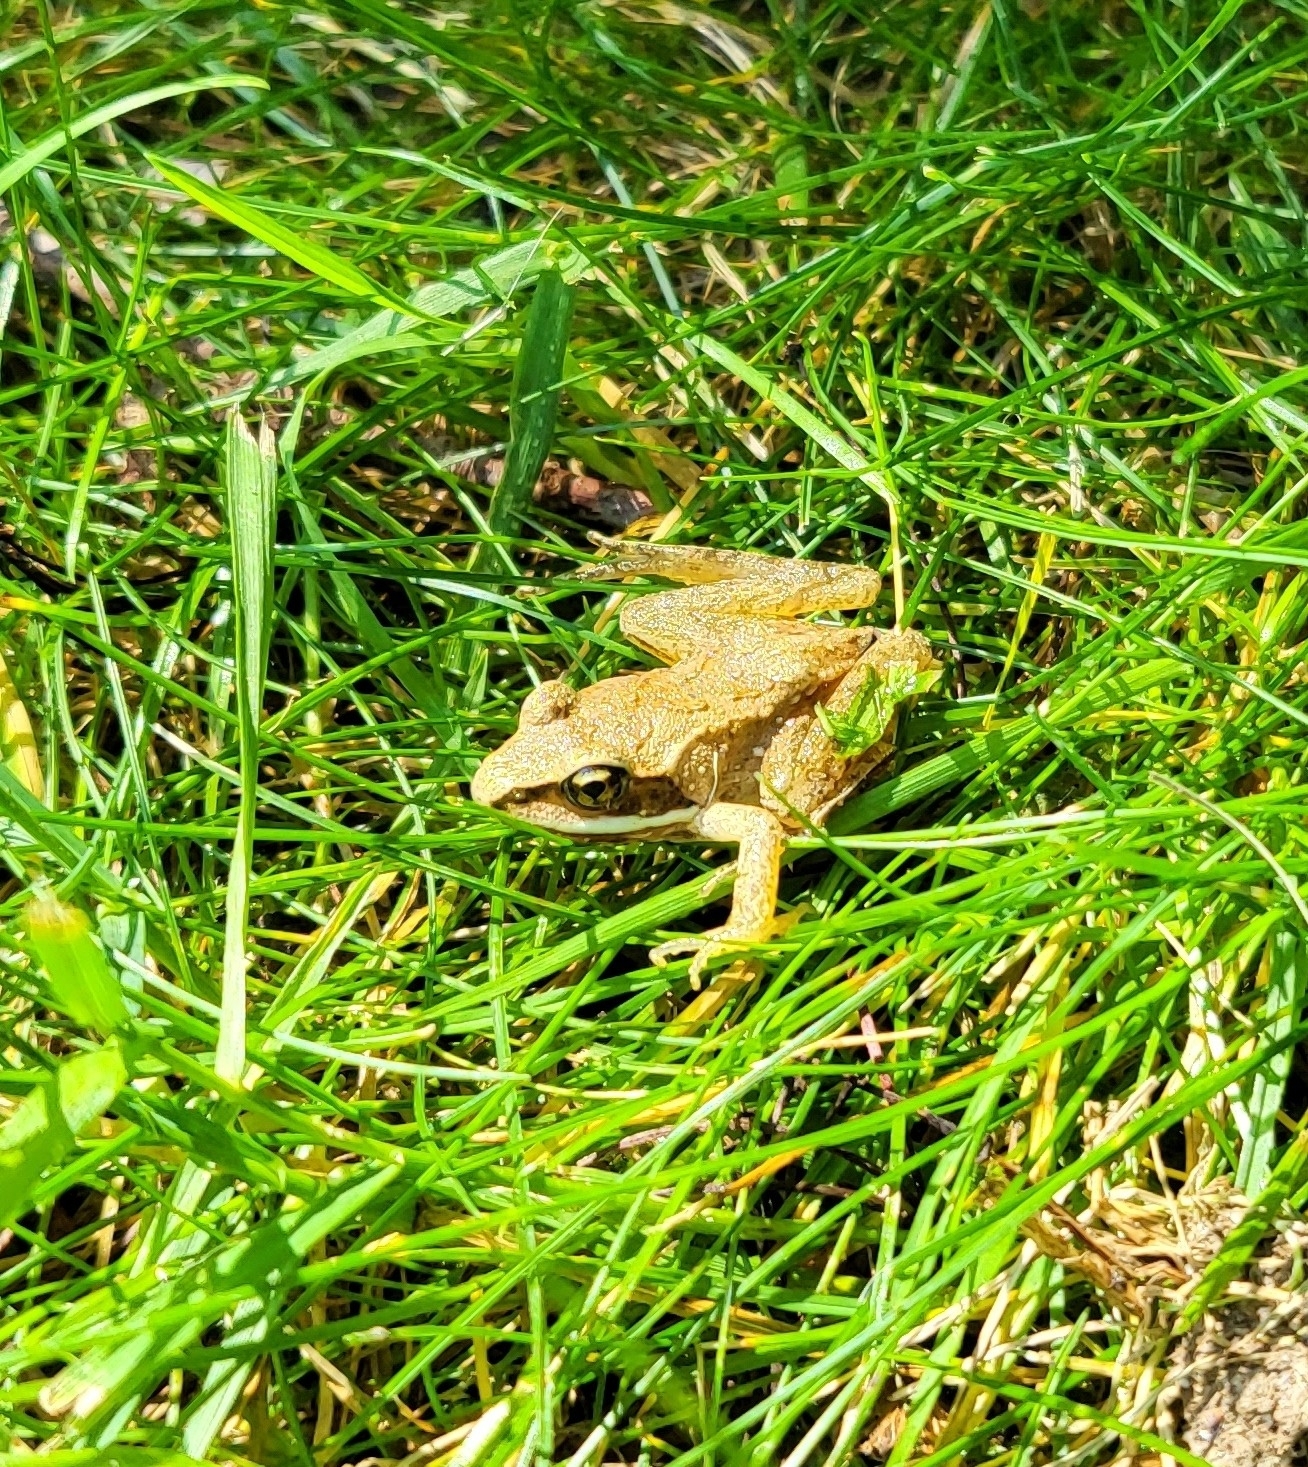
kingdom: Animalia
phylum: Chordata
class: Amphibia
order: Anura
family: Ranidae
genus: Lithobates
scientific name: Lithobates sylvaticus
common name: Wood frog
